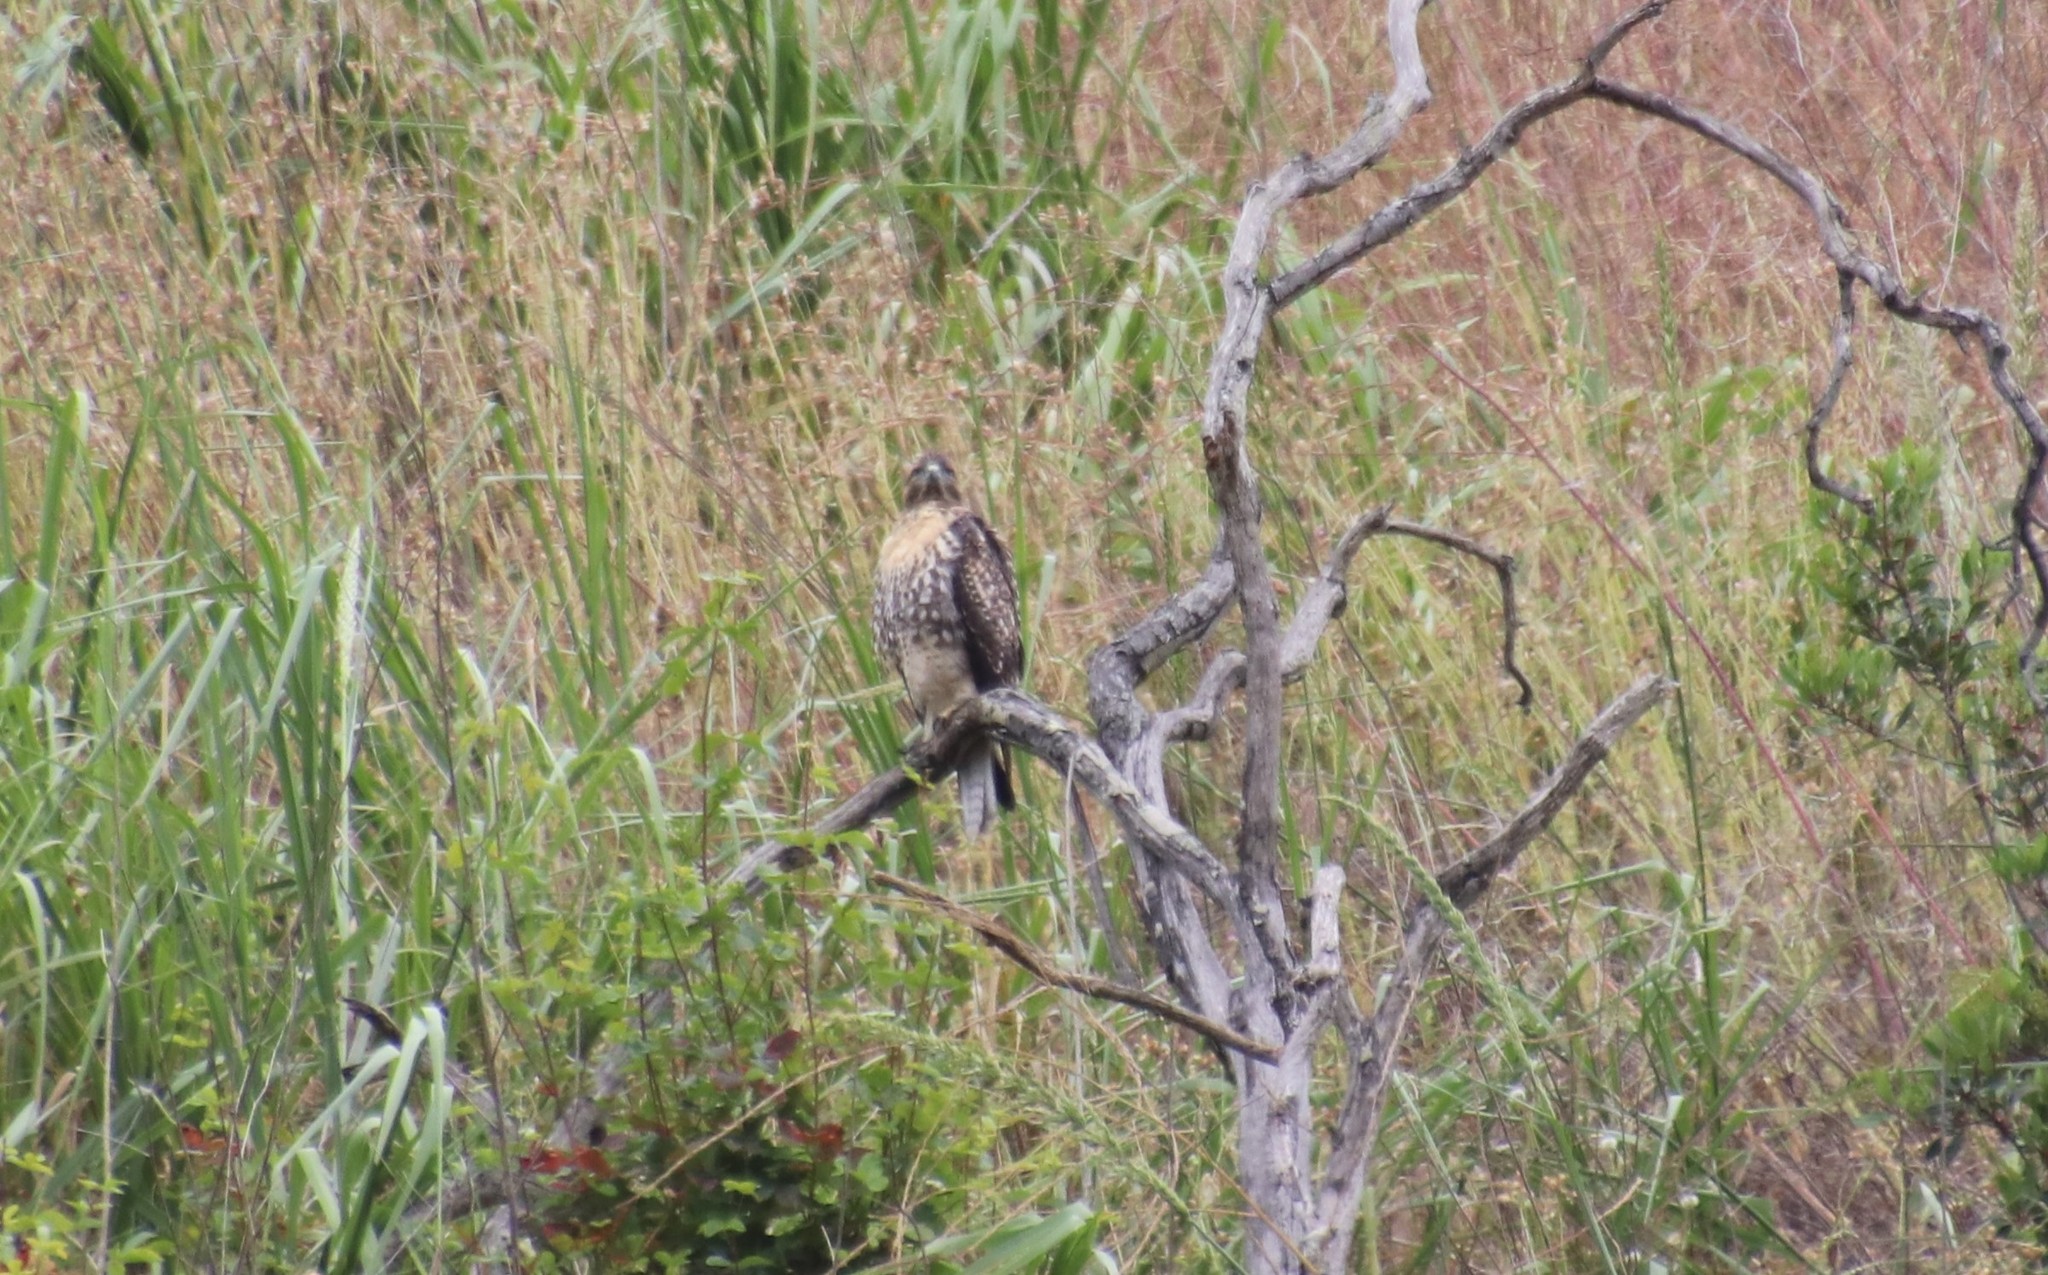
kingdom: Animalia
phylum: Chordata
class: Aves
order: Accipitriformes
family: Accipitridae
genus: Buteo
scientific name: Buteo jamaicensis
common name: Red-tailed hawk
